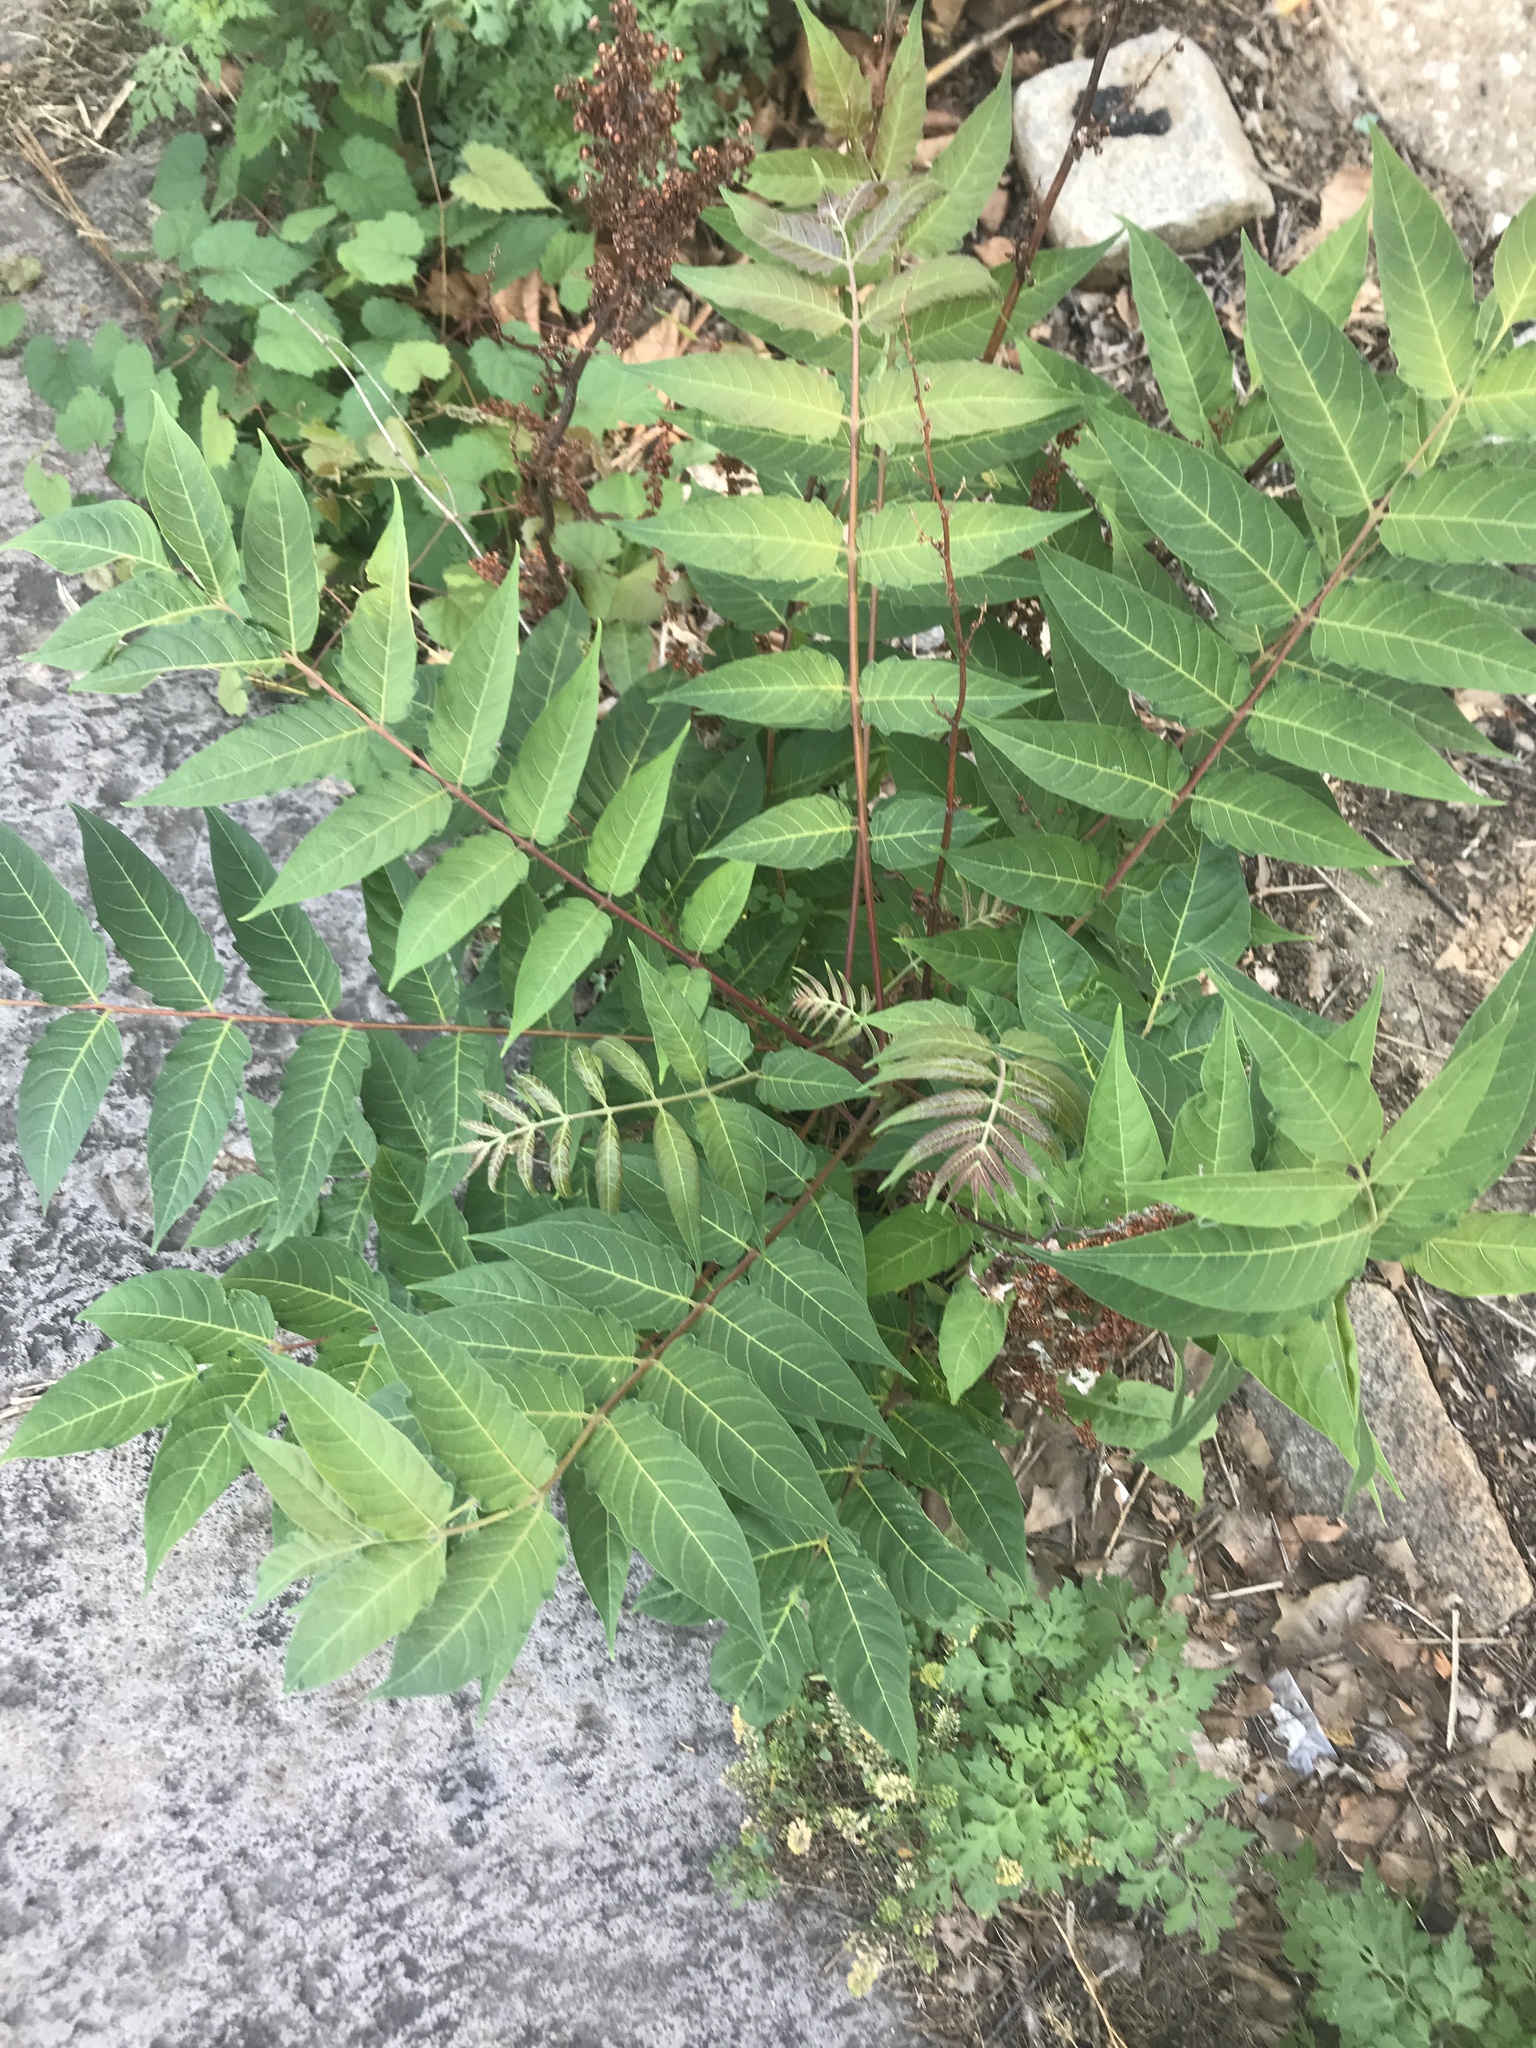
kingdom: Plantae
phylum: Tracheophyta
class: Magnoliopsida
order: Sapindales
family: Simaroubaceae
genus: Ailanthus
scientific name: Ailanthus altissima
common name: Tree-of-heaven
